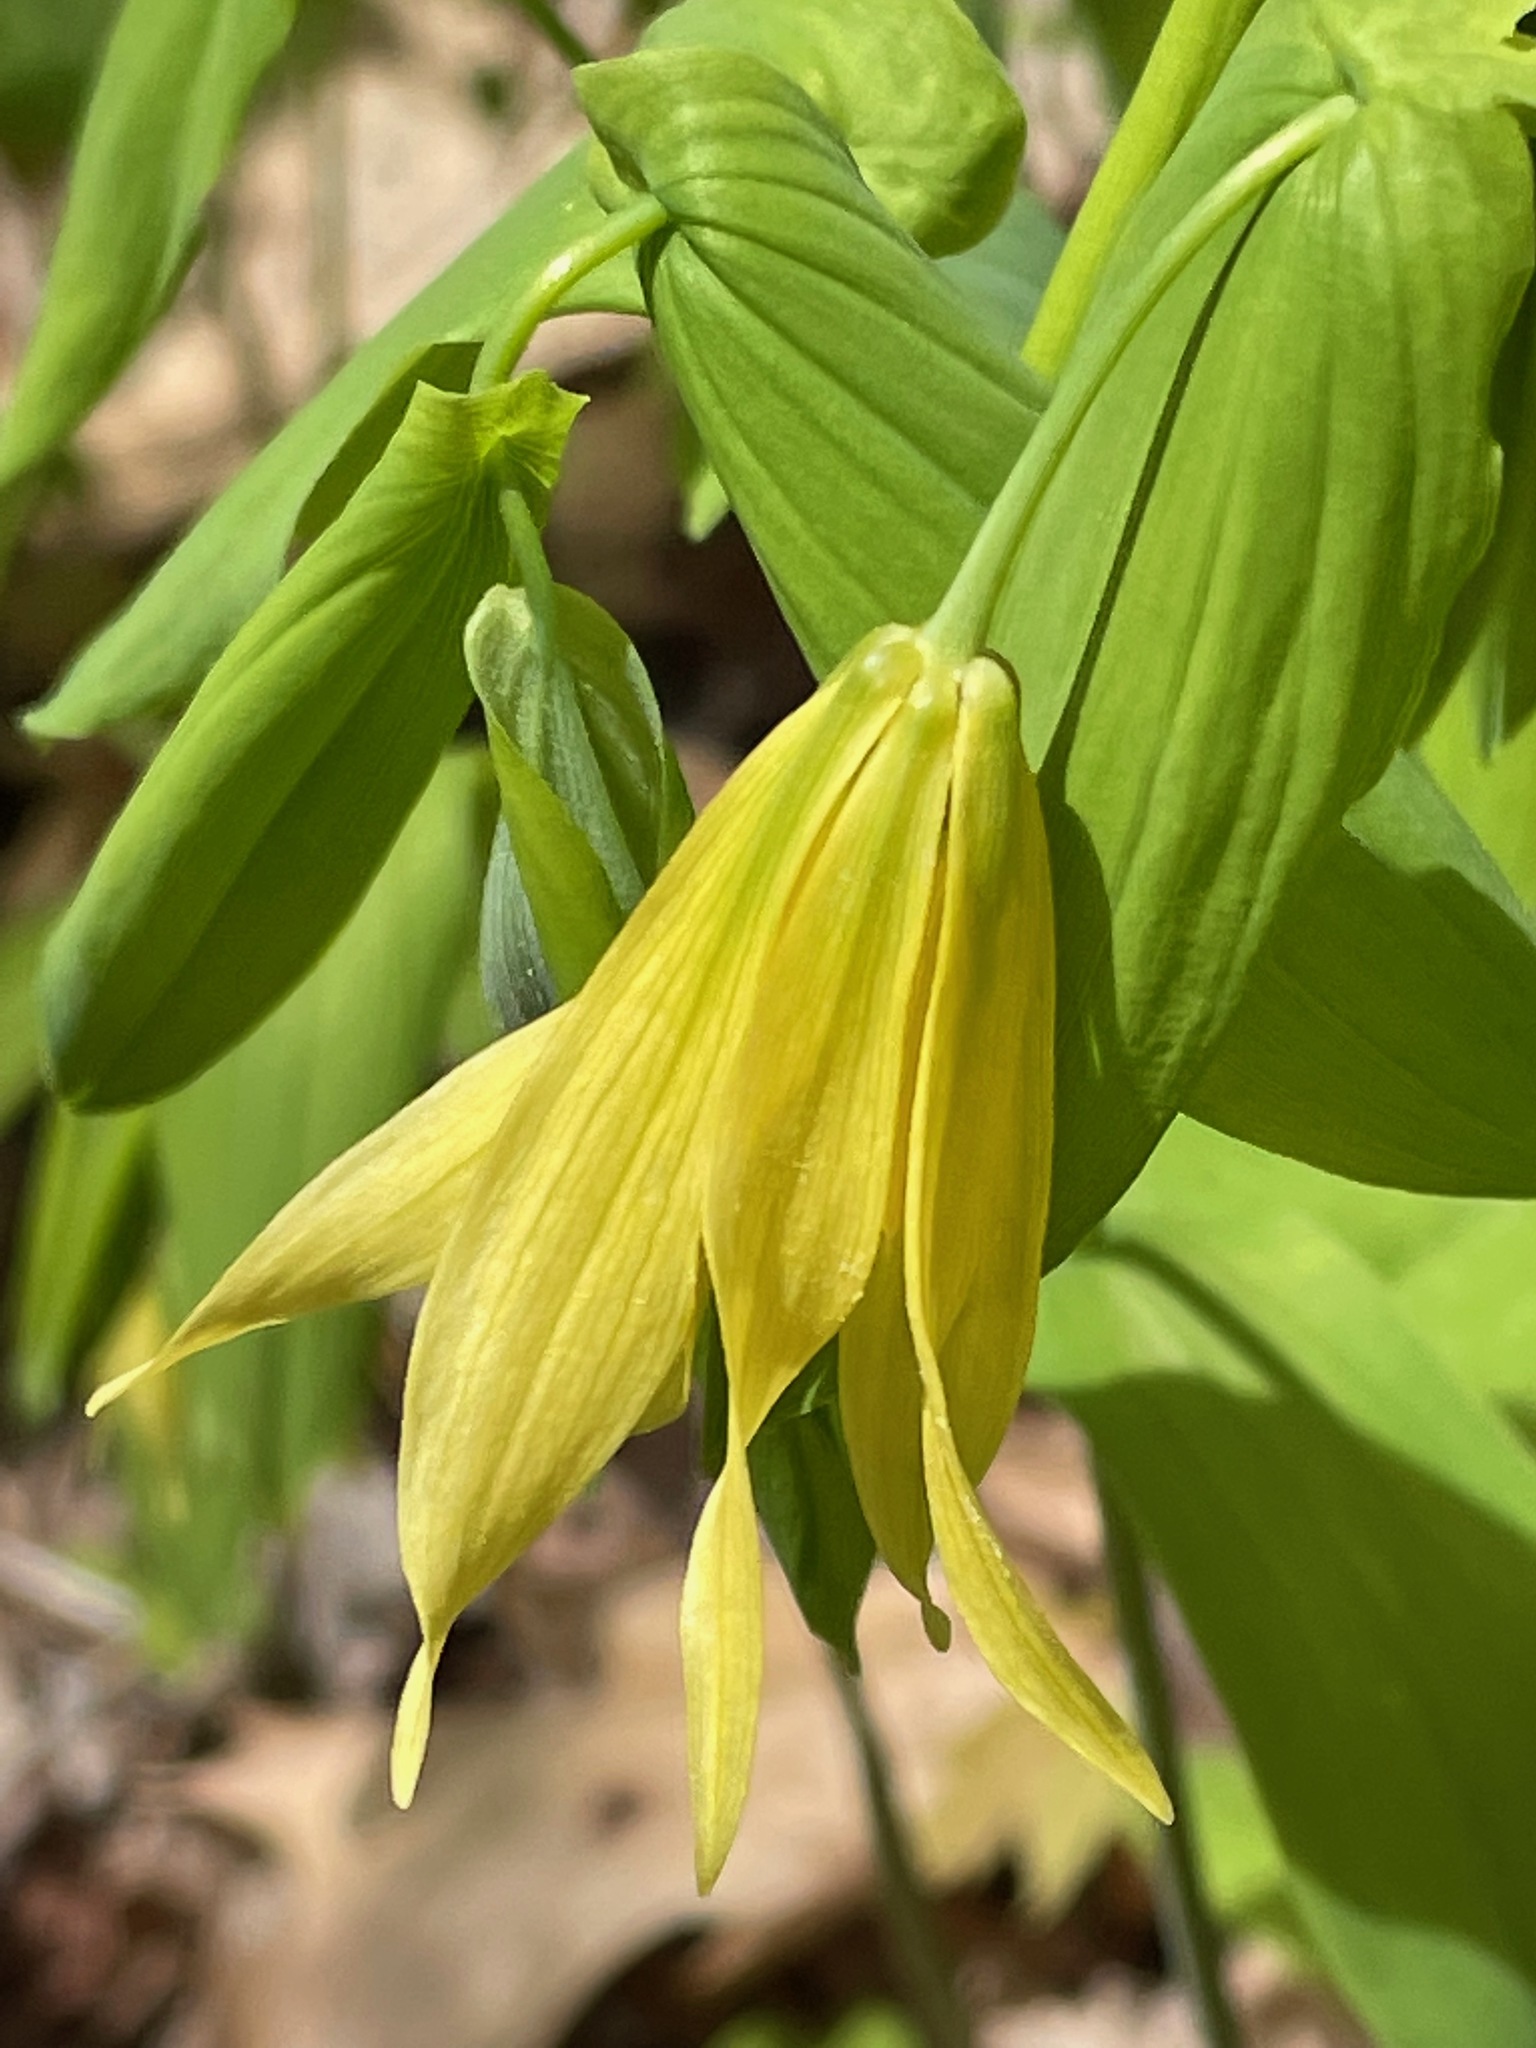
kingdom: Plantae
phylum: Tracheophyta
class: Liliopsida
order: Liliales
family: Colchicaceae
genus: Uvularia
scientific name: Uvularia grandiflora
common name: Bellwort
